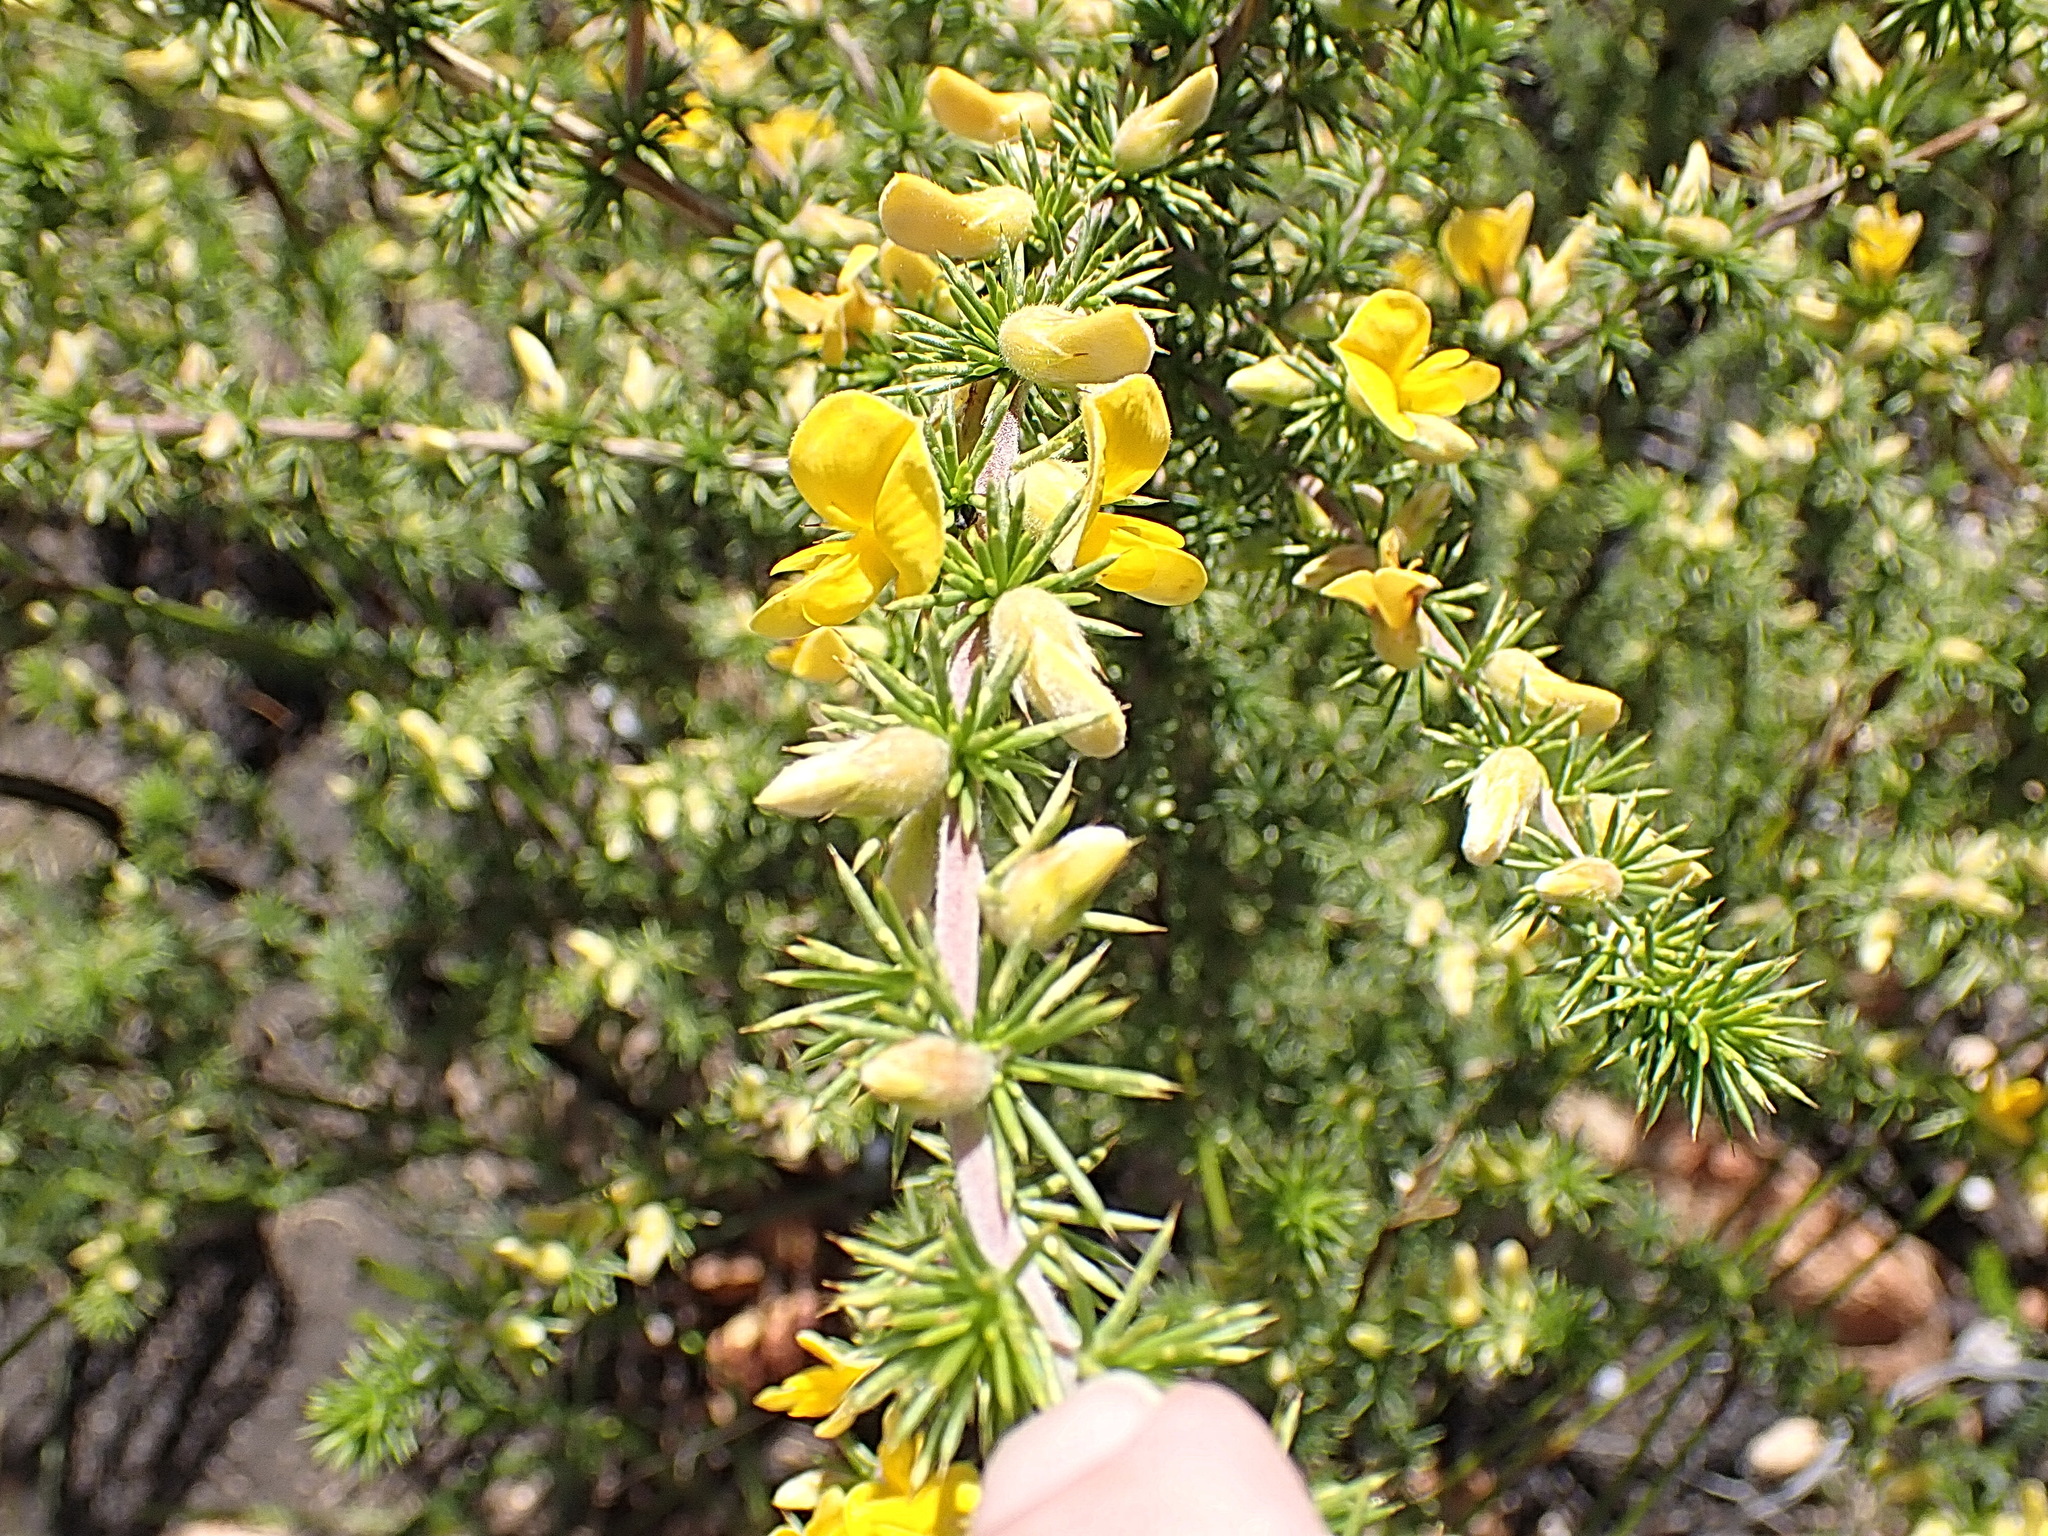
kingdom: Plantae
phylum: Tracheophyta
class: Magnoliopsida
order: Fabales
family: Fabaceae
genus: Aspalathus
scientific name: Aspalathus hirta
